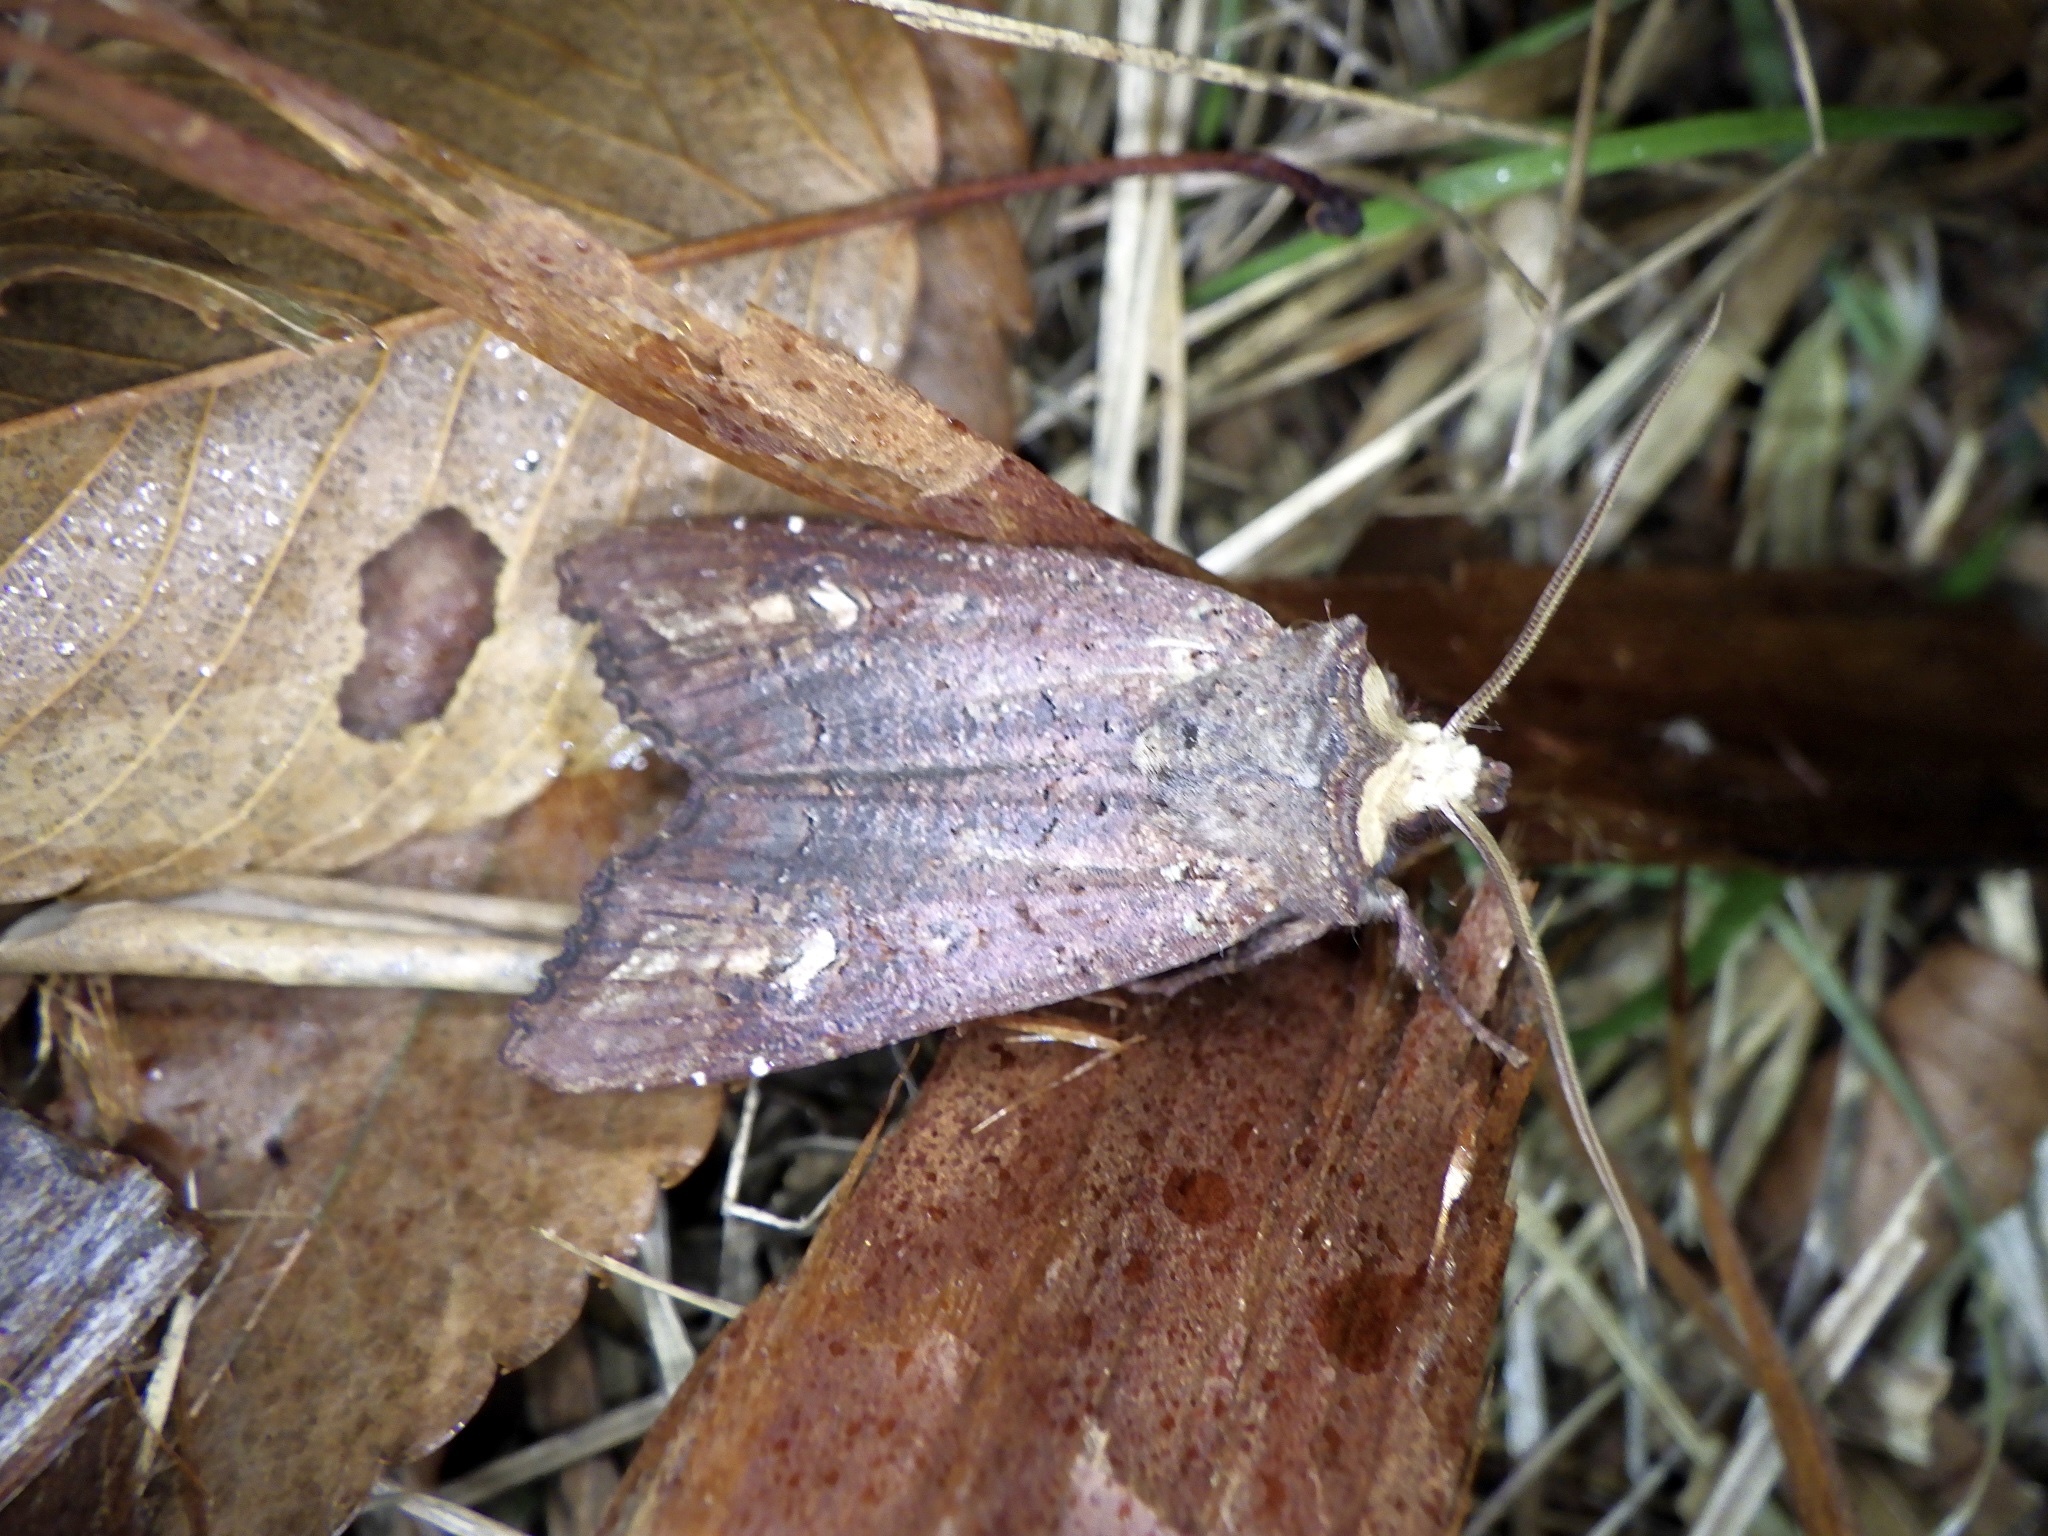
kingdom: Animalia
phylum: Arthropoda
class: Insecta
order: Lepidoptera
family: Noctuidae
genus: Xylena
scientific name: Xylena nihonica
